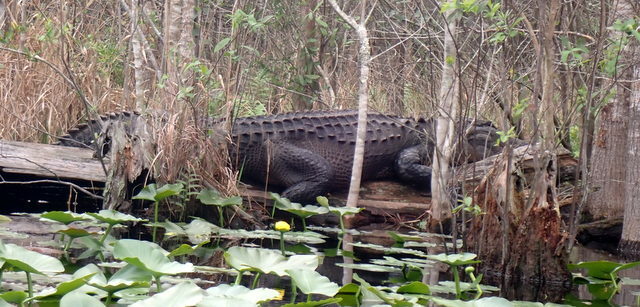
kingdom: Animalia
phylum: Chordata
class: Crocodylia
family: Alligatoridae
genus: Alligator
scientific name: Alligator mississippiensis
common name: American alligator
